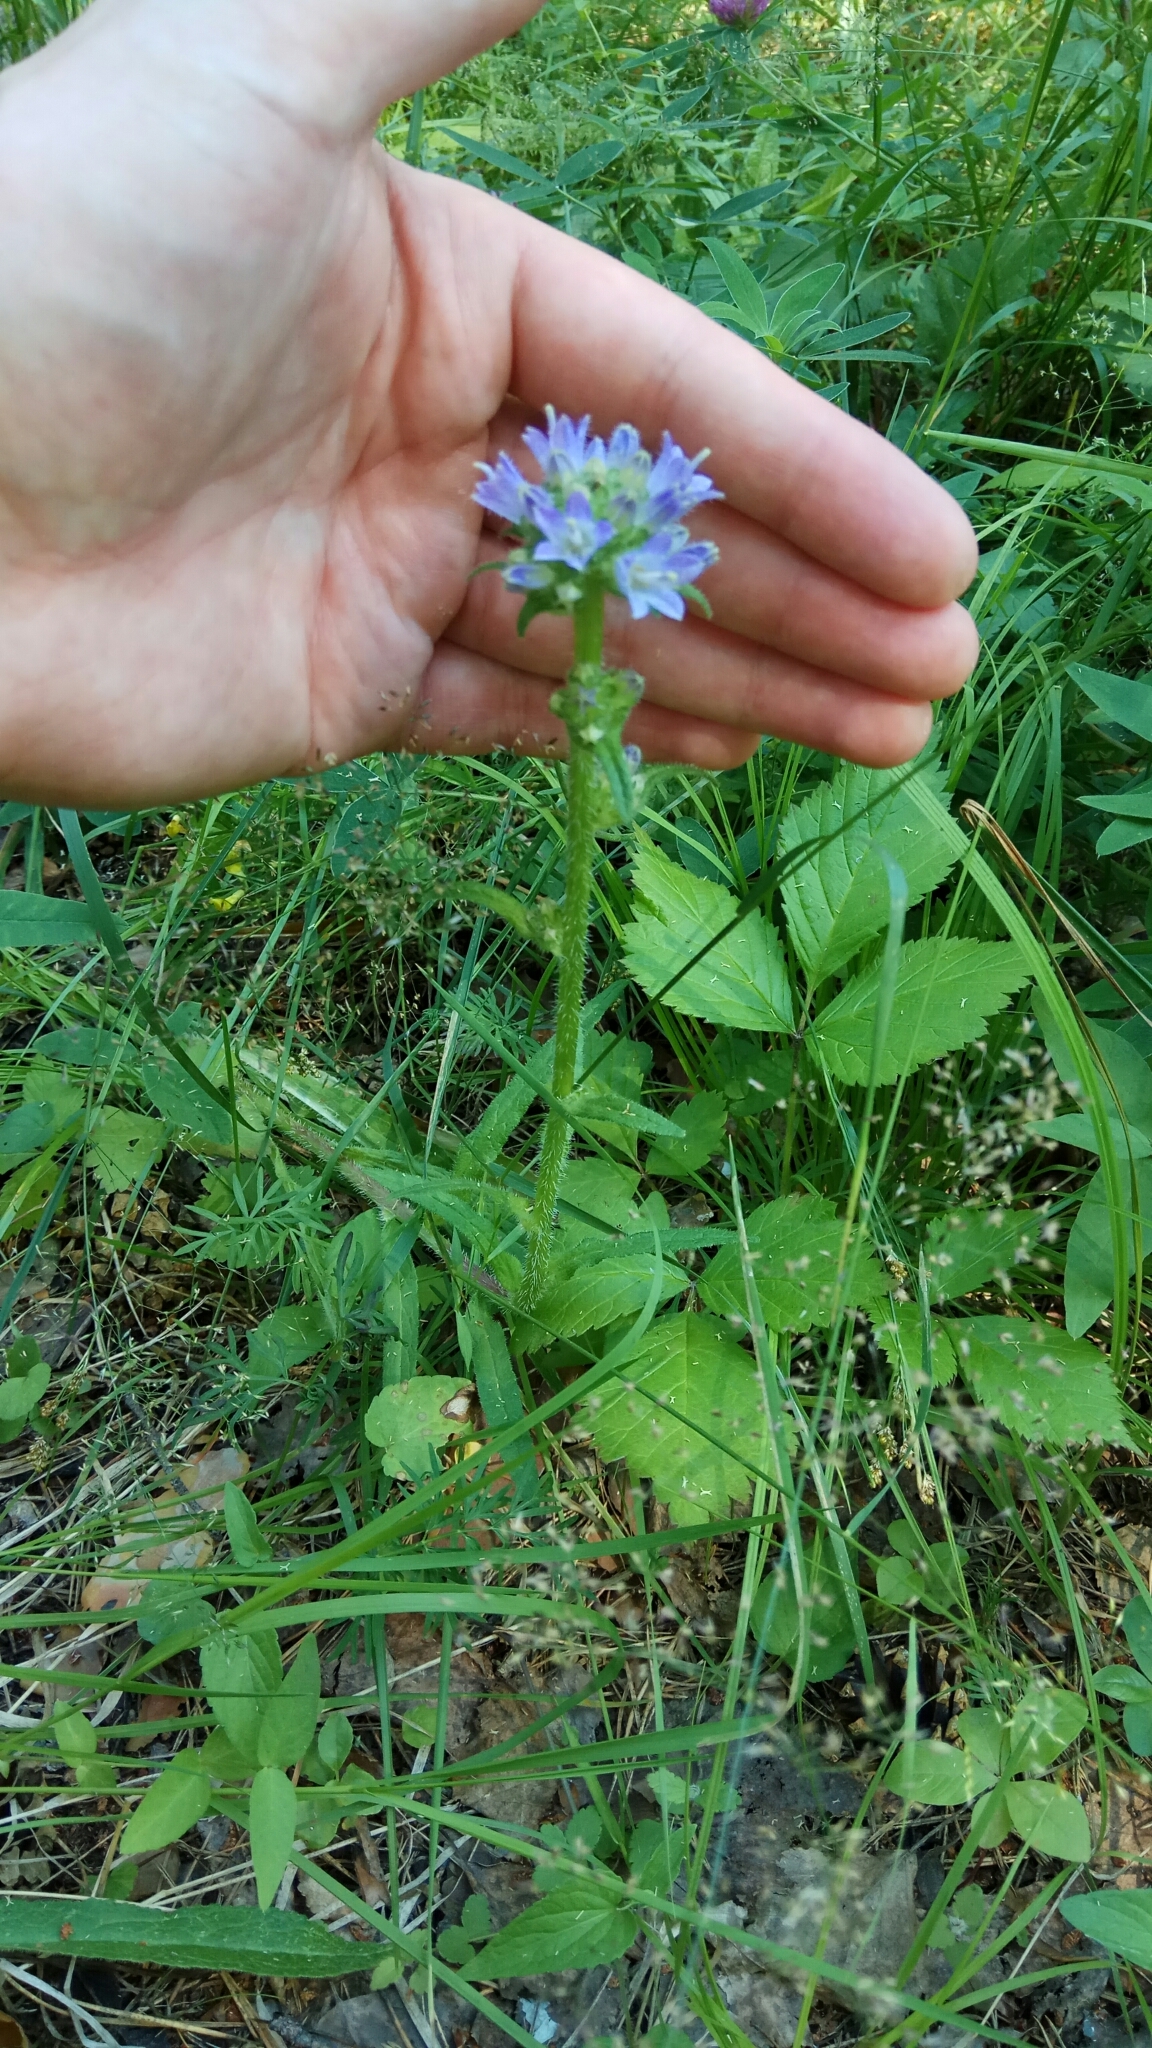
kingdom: Plantae
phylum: Tracheophyta
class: Magnoliopsida
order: Asterales
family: Campanulaceae
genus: Campanula
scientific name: Campanula cervicaria
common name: Bristly bellflower
